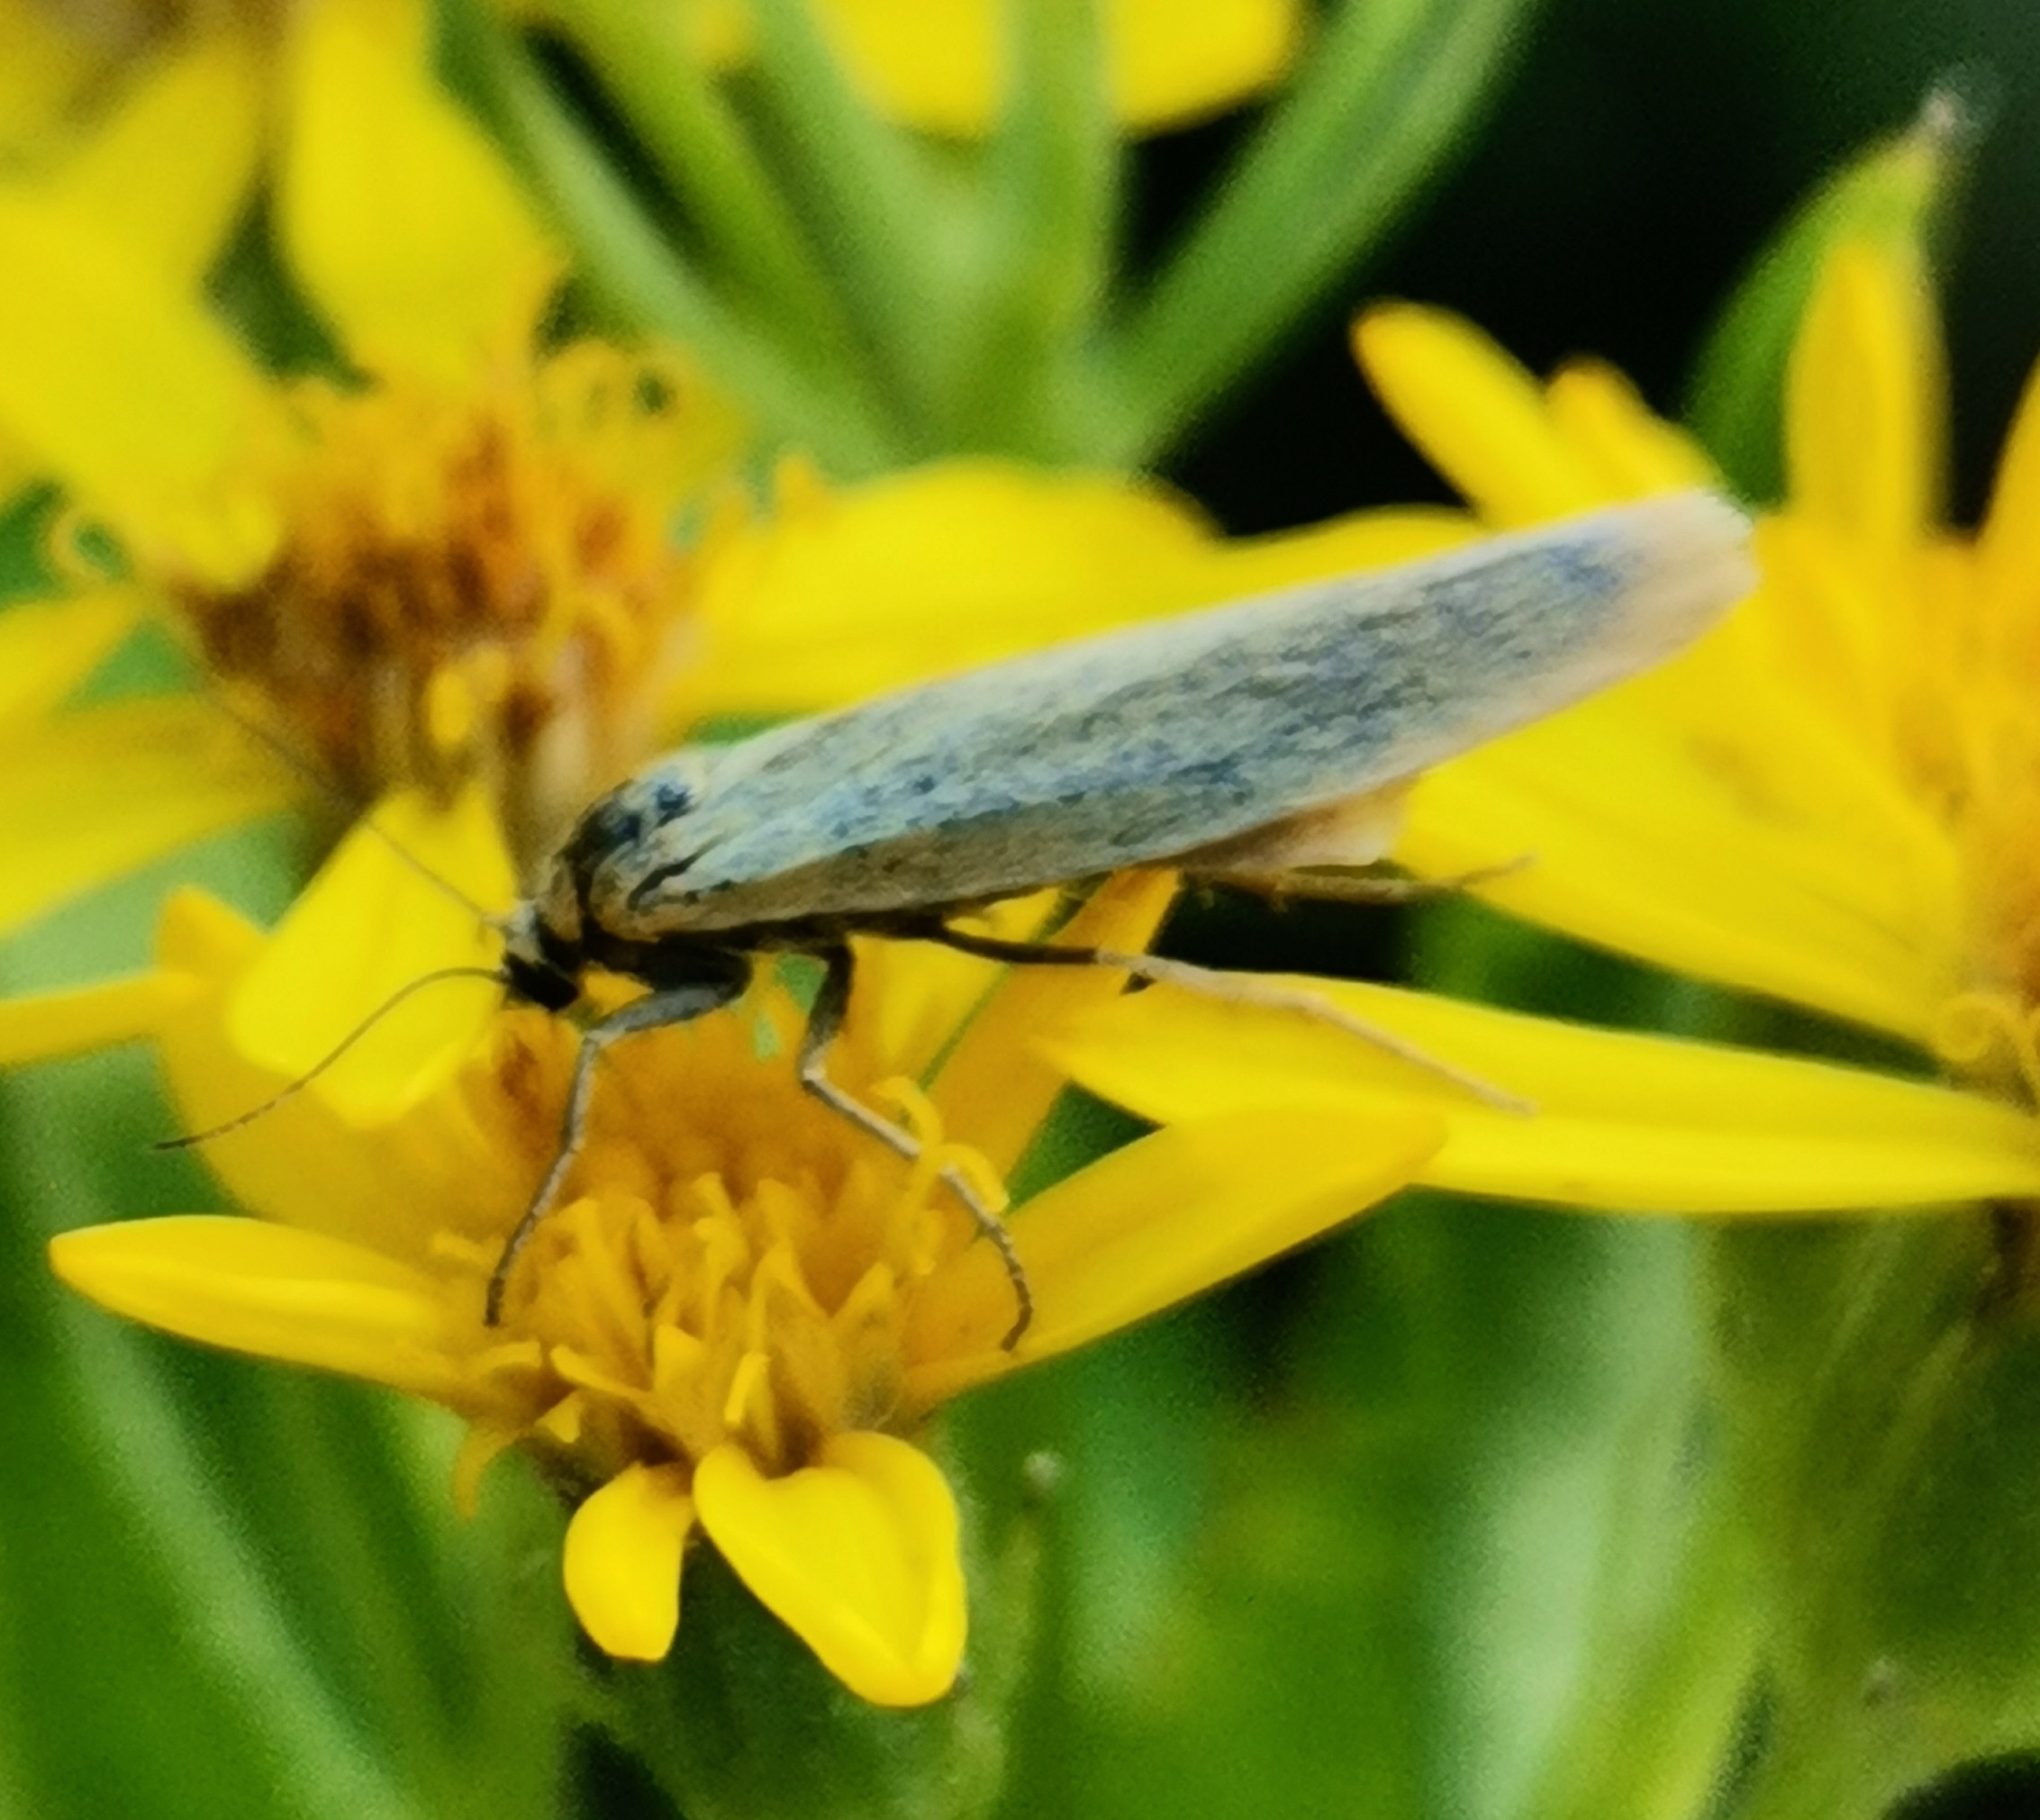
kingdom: Animalia
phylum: Arthropoda
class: Insecta
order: Lepidoptera
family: Erebidae
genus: Indalia
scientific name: Indalia lutarella
